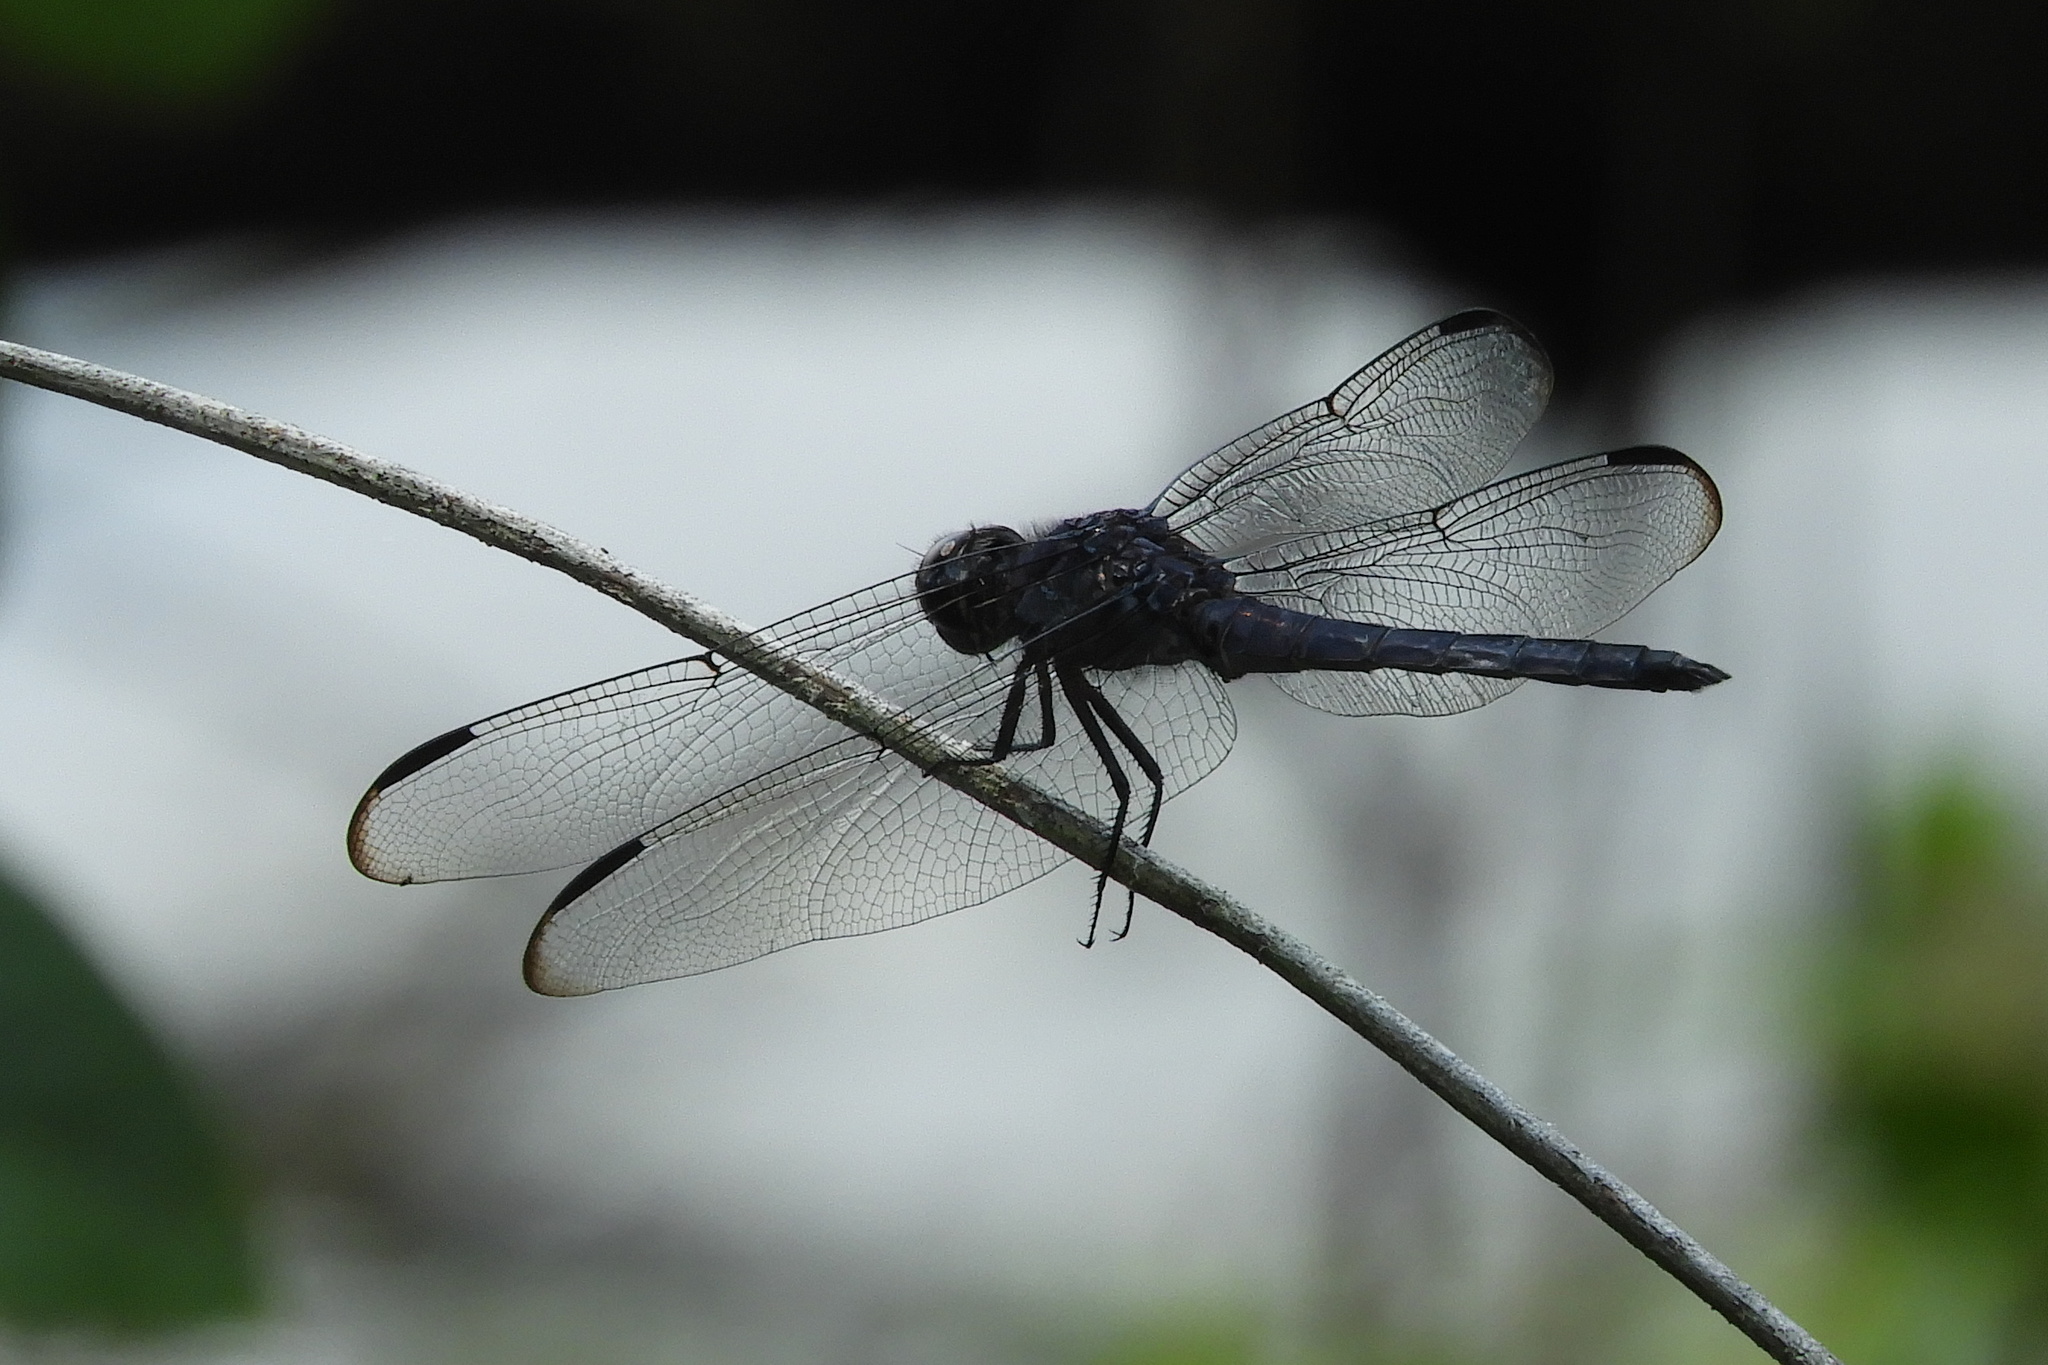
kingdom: Animalia
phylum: Arthropoda
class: Insecta
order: Odonata
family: Libellulidae
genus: Libellula
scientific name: Libellula incesta
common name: Slaty skimmer
